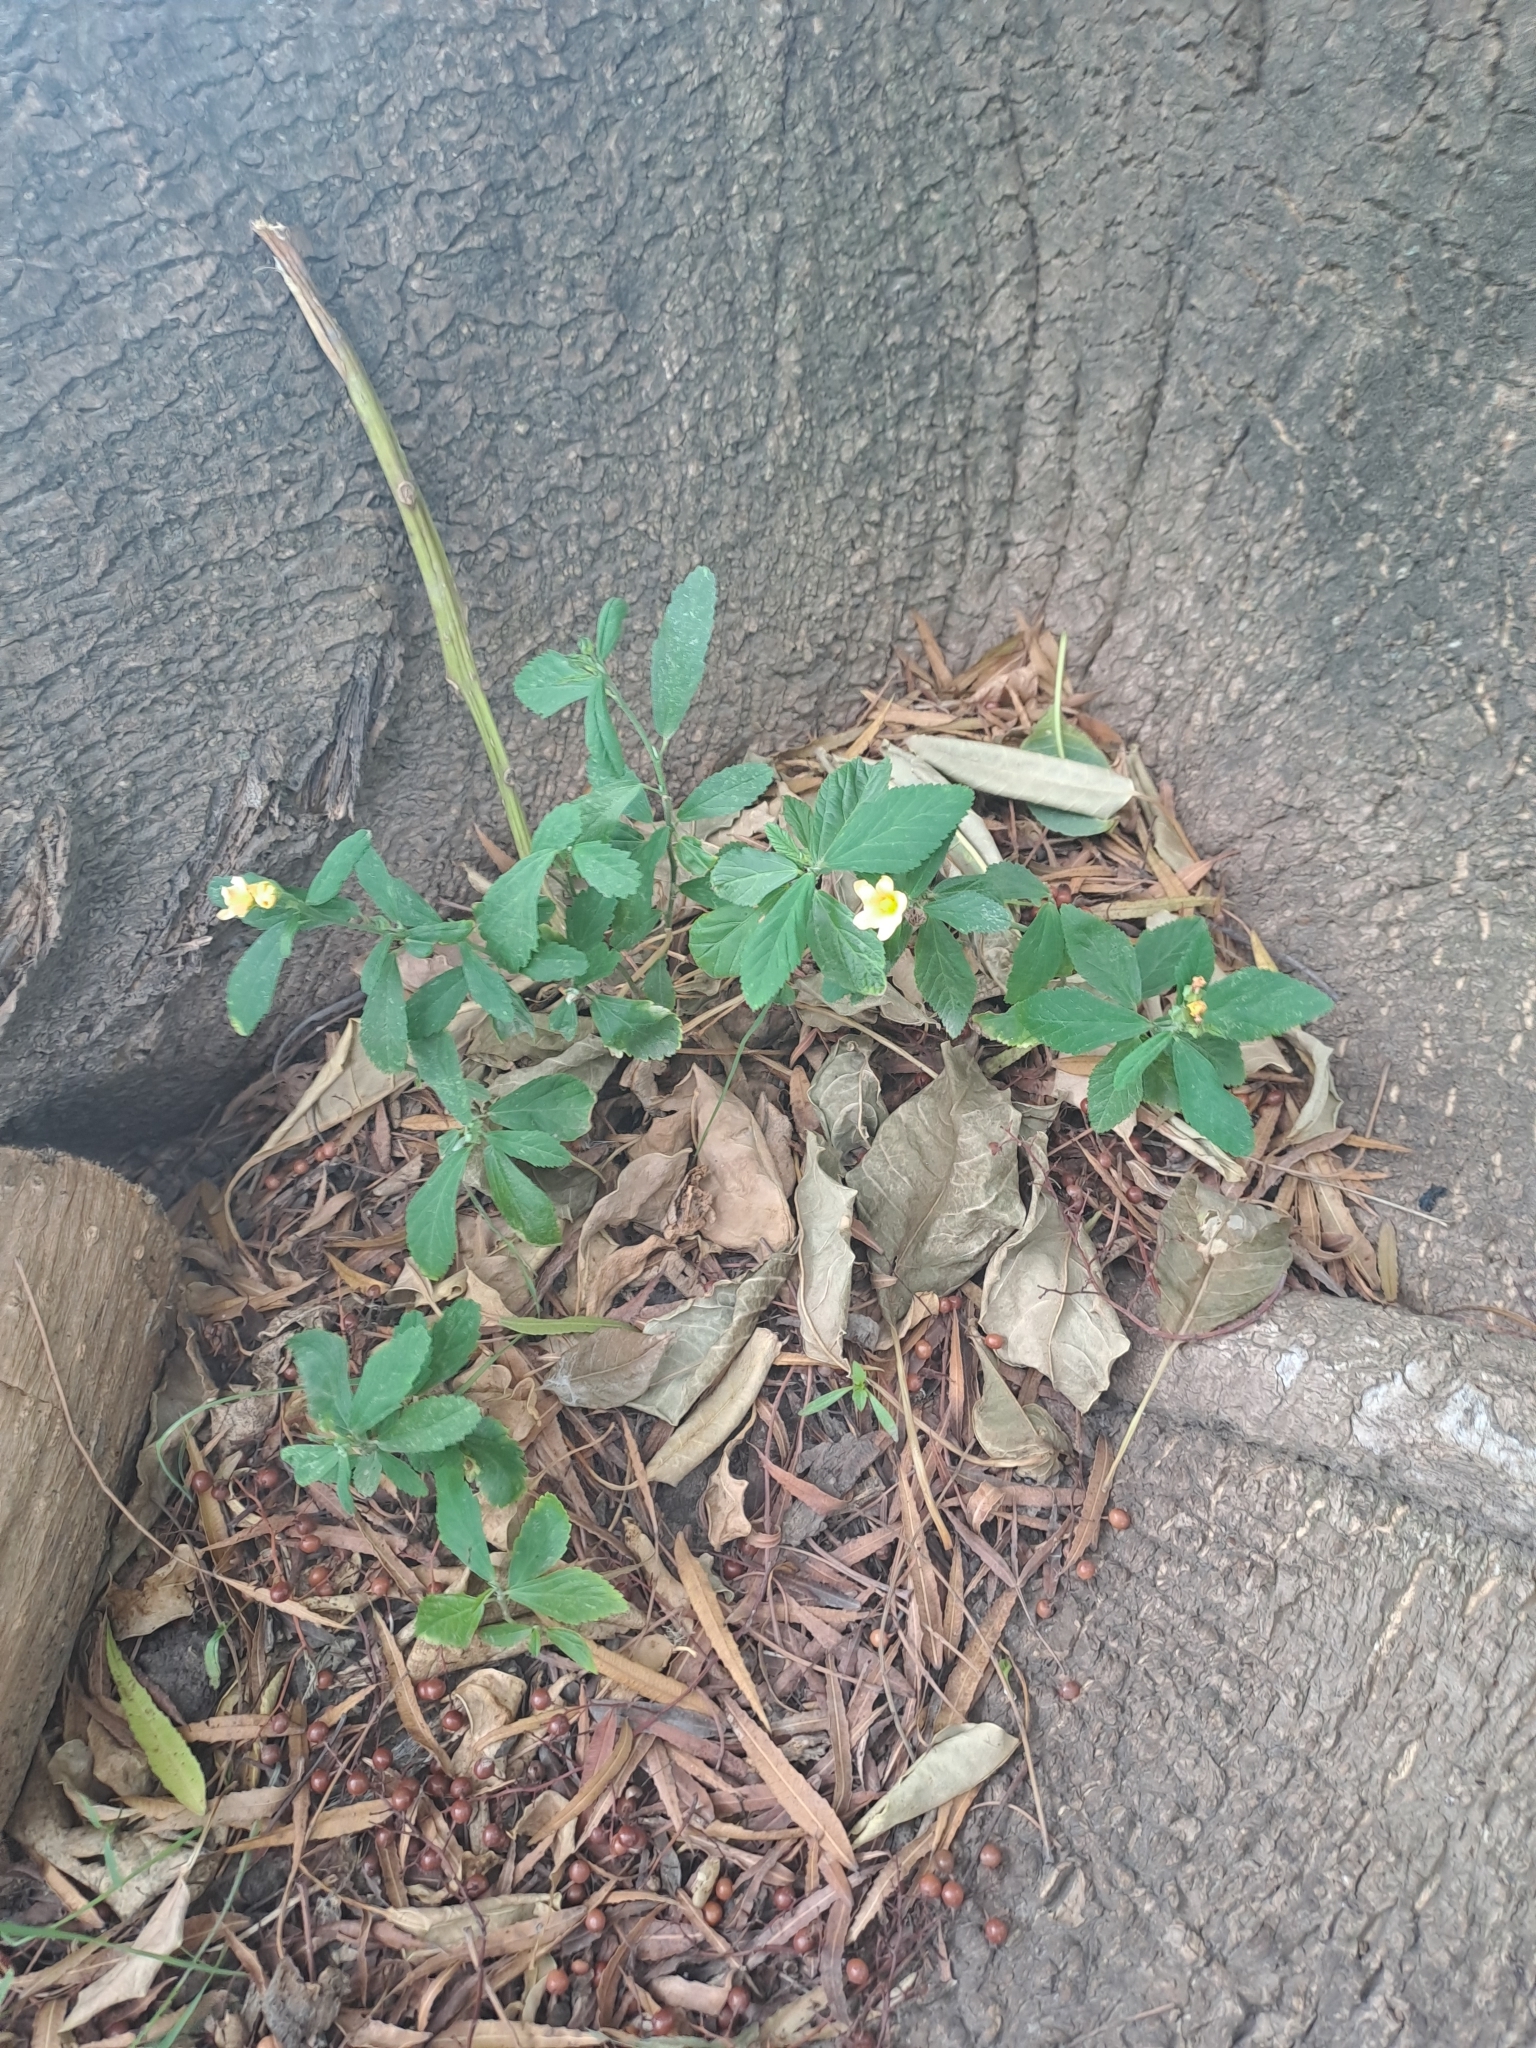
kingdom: Plantae
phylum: Tracheophyta
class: Magnoliopsida
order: Malvales
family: Malvaceae
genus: Sida
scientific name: Sida rhombifolia
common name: Queensland-hemp
